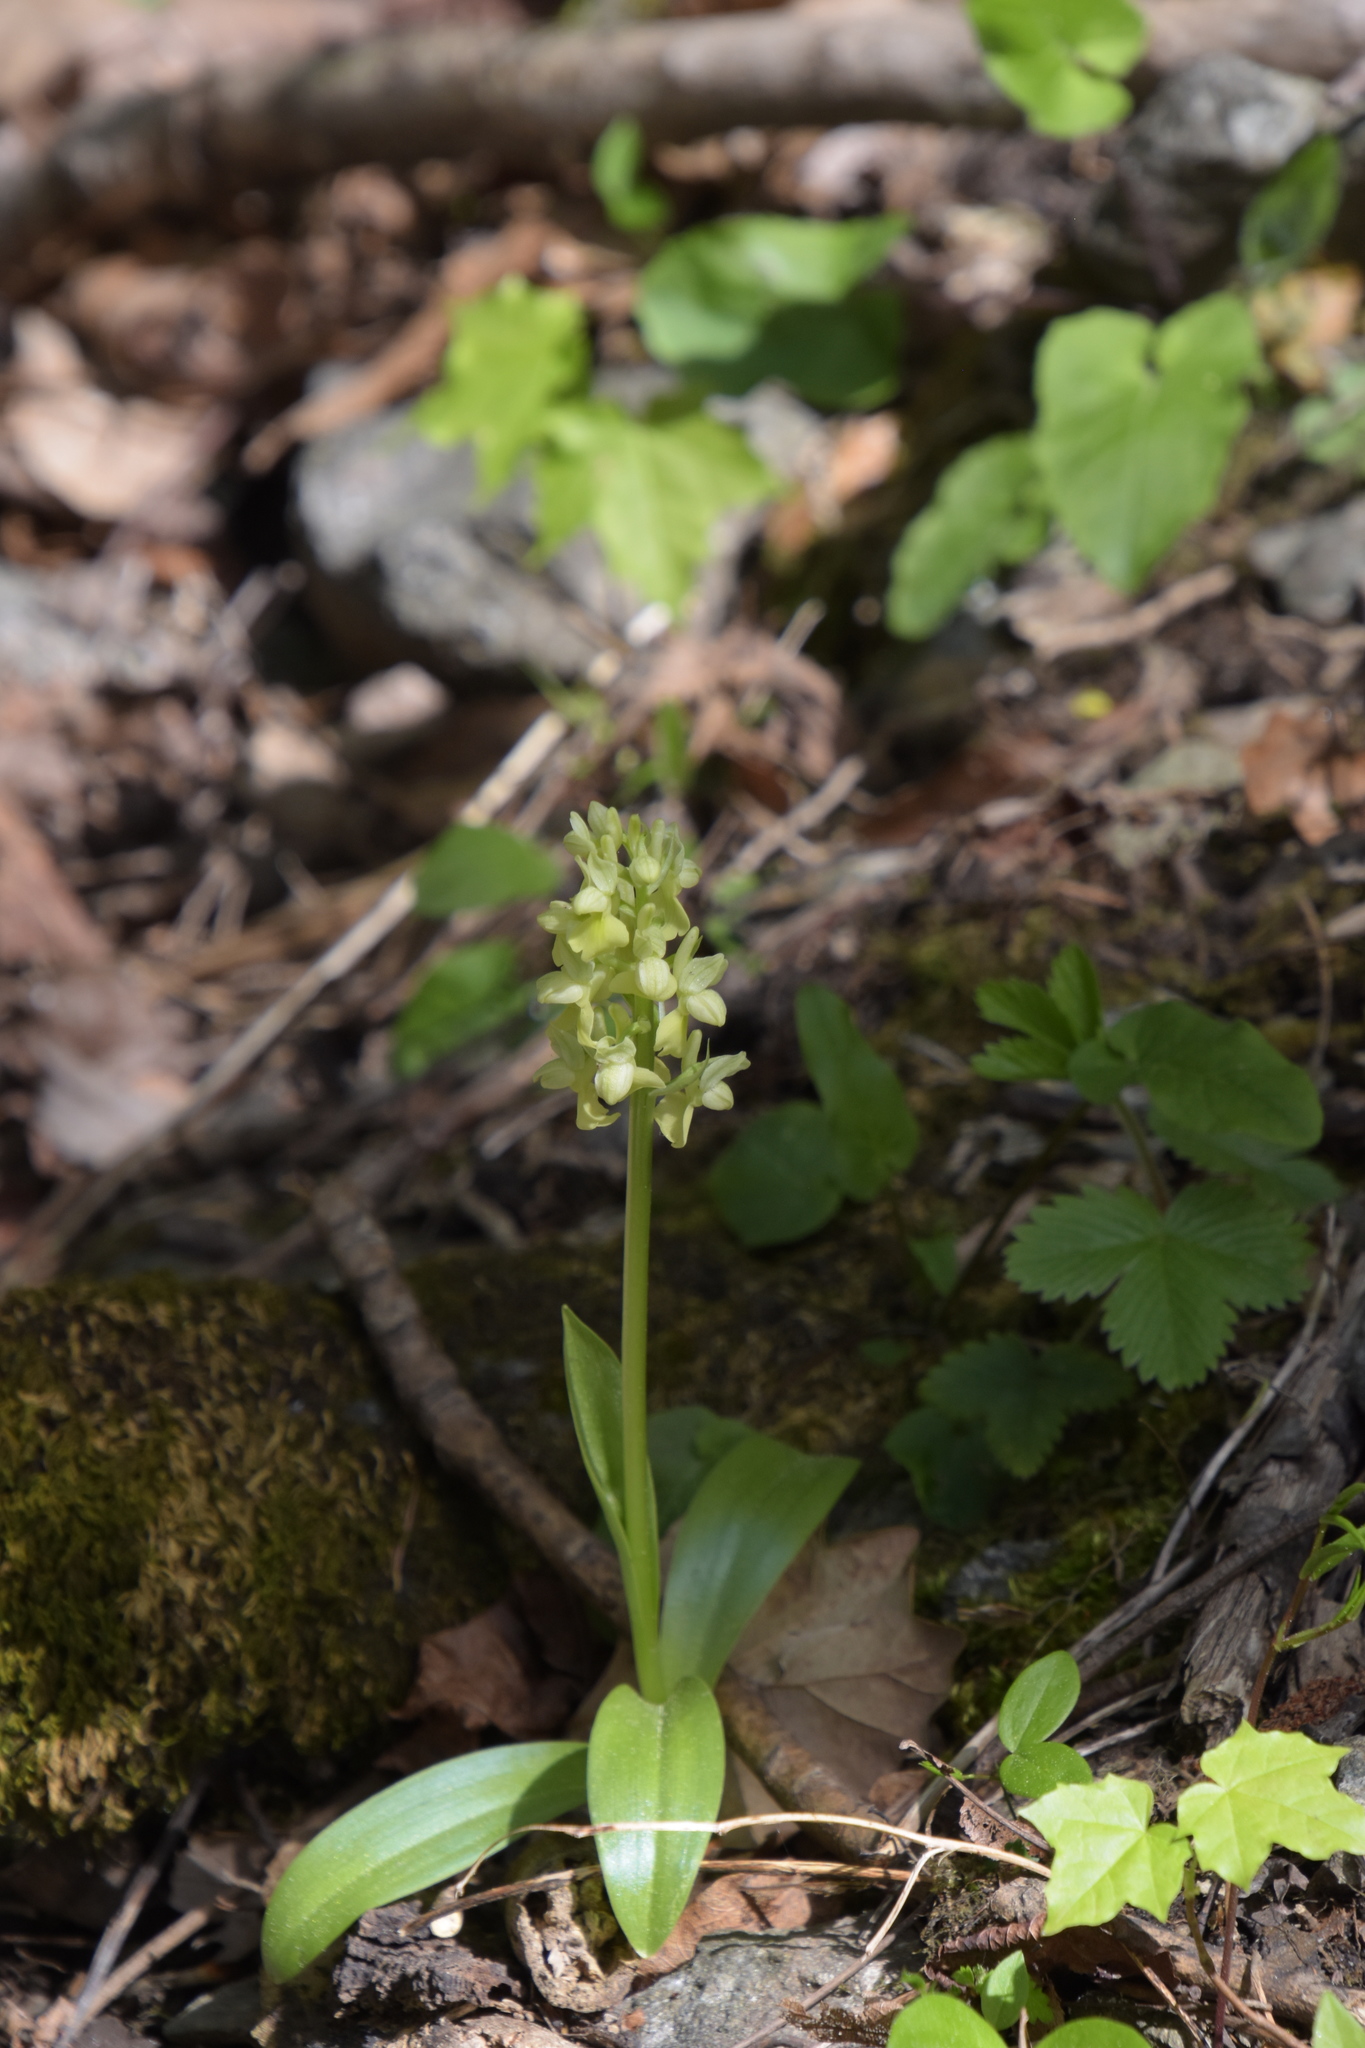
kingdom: Plantae
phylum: Tracheophyta
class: Liliopsida
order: Asparagales
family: Orchidaceae
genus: Orchis
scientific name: Orchis pallens
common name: Pale-flowered orchid
